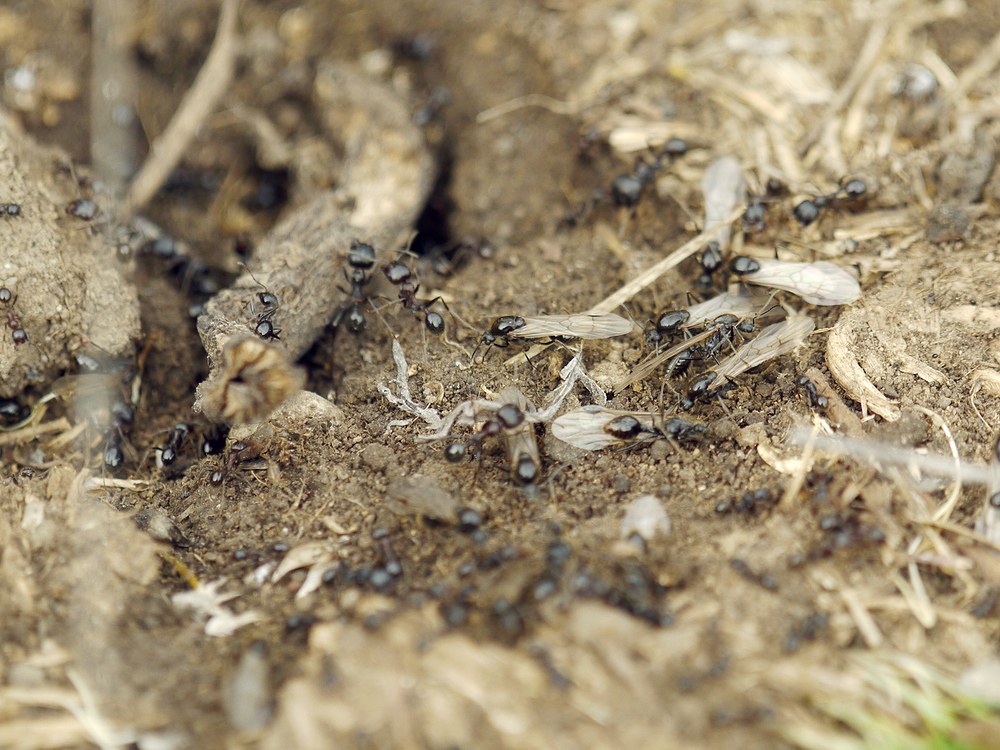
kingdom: Animalia
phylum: Arthropoda
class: Insecta
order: Hymenoptera
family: Formicidae
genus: Messor
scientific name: Messor structor
